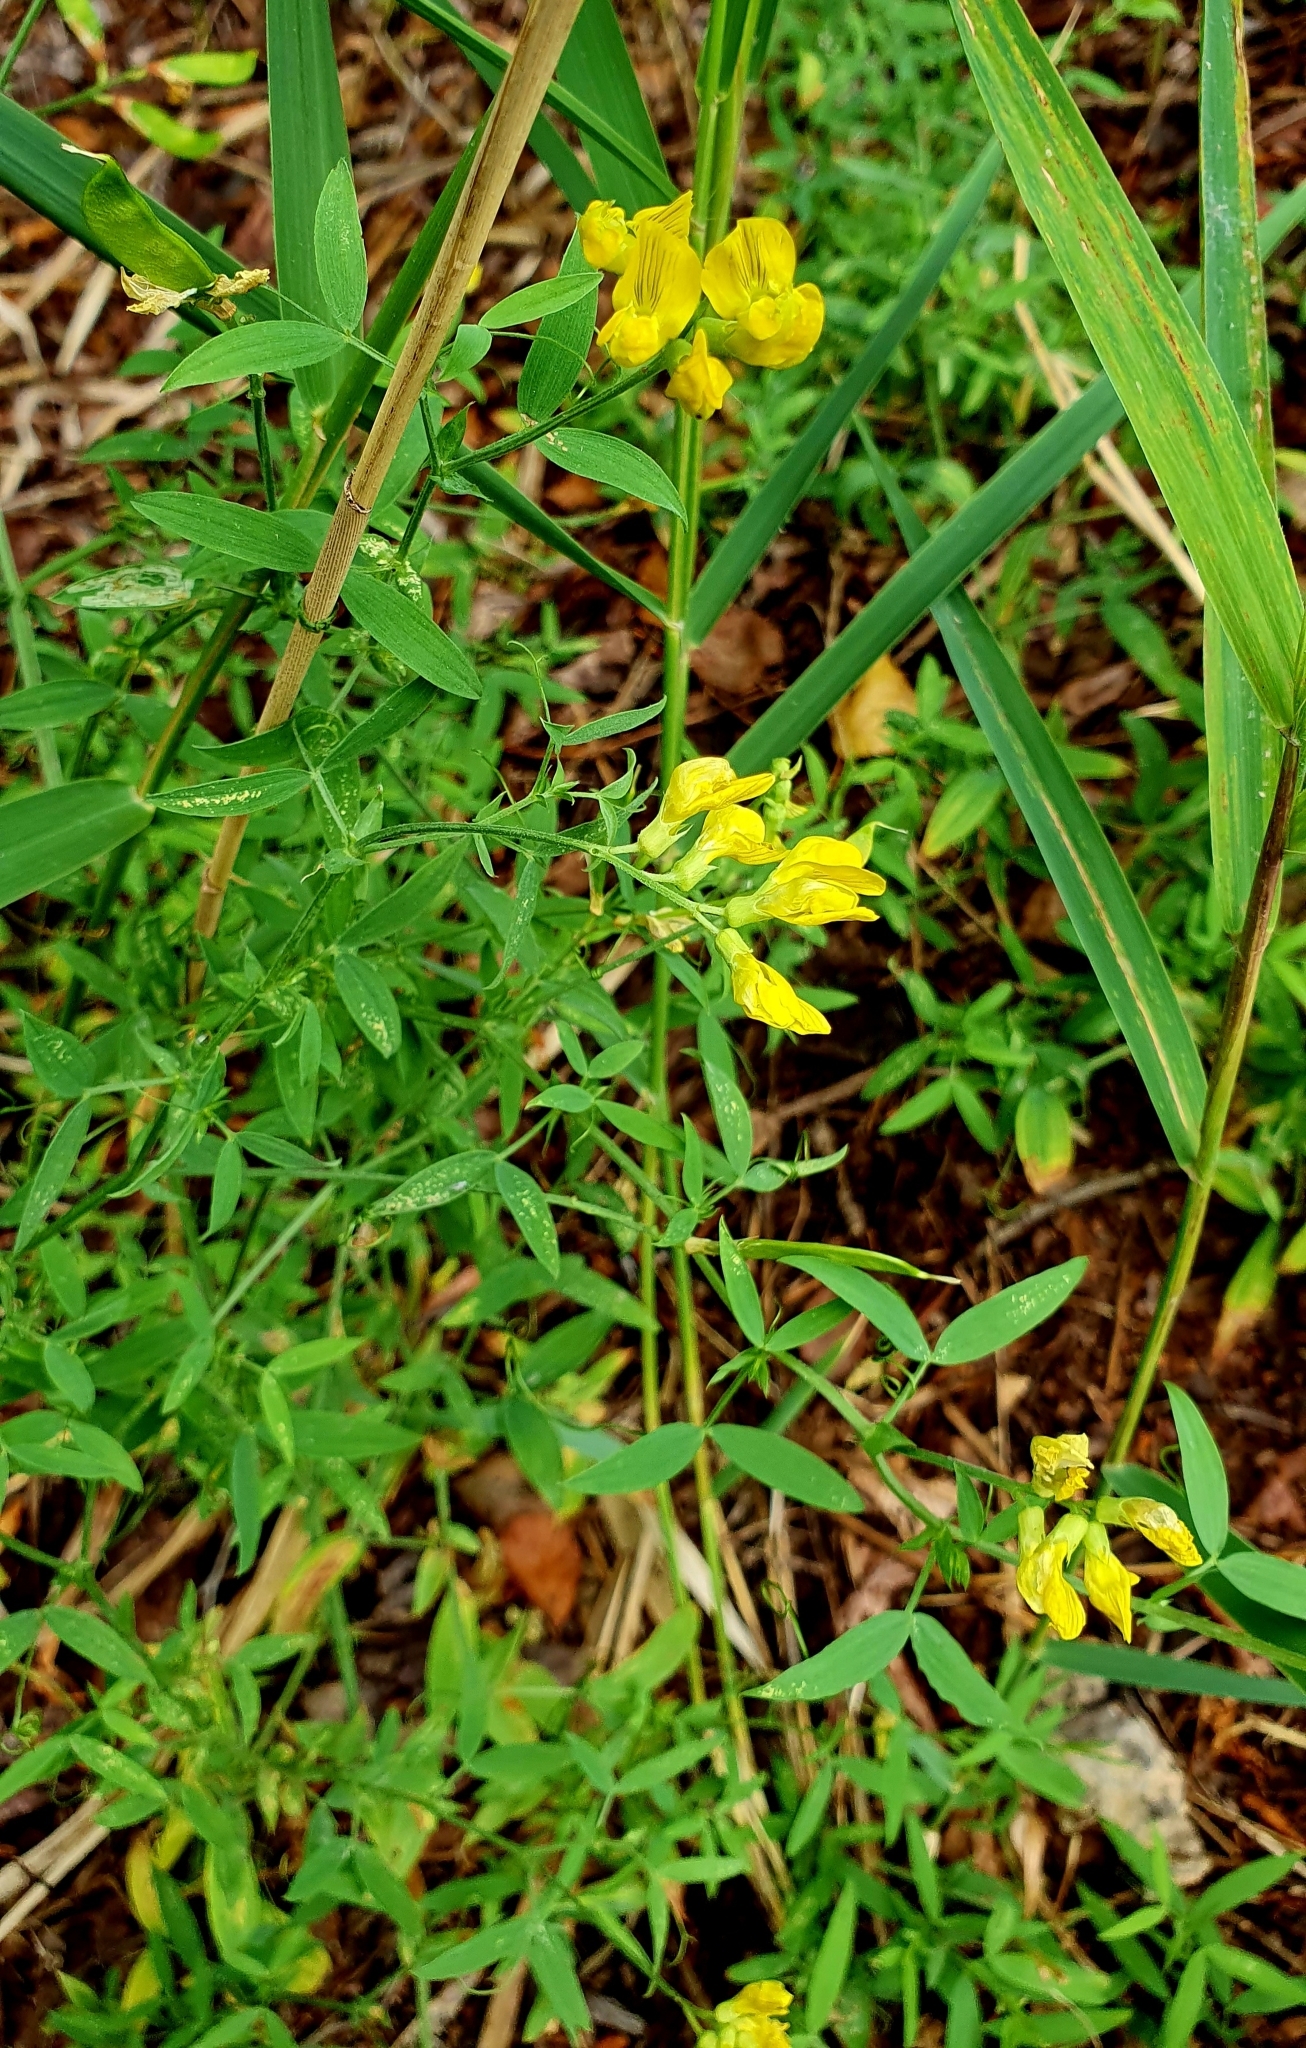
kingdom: Plantae
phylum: Tracheophyta
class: Magnoliopsida
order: Fabales
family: Fabaceae
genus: Lathyrus
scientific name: Lathyrus pratensis
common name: Meadow vetchling
